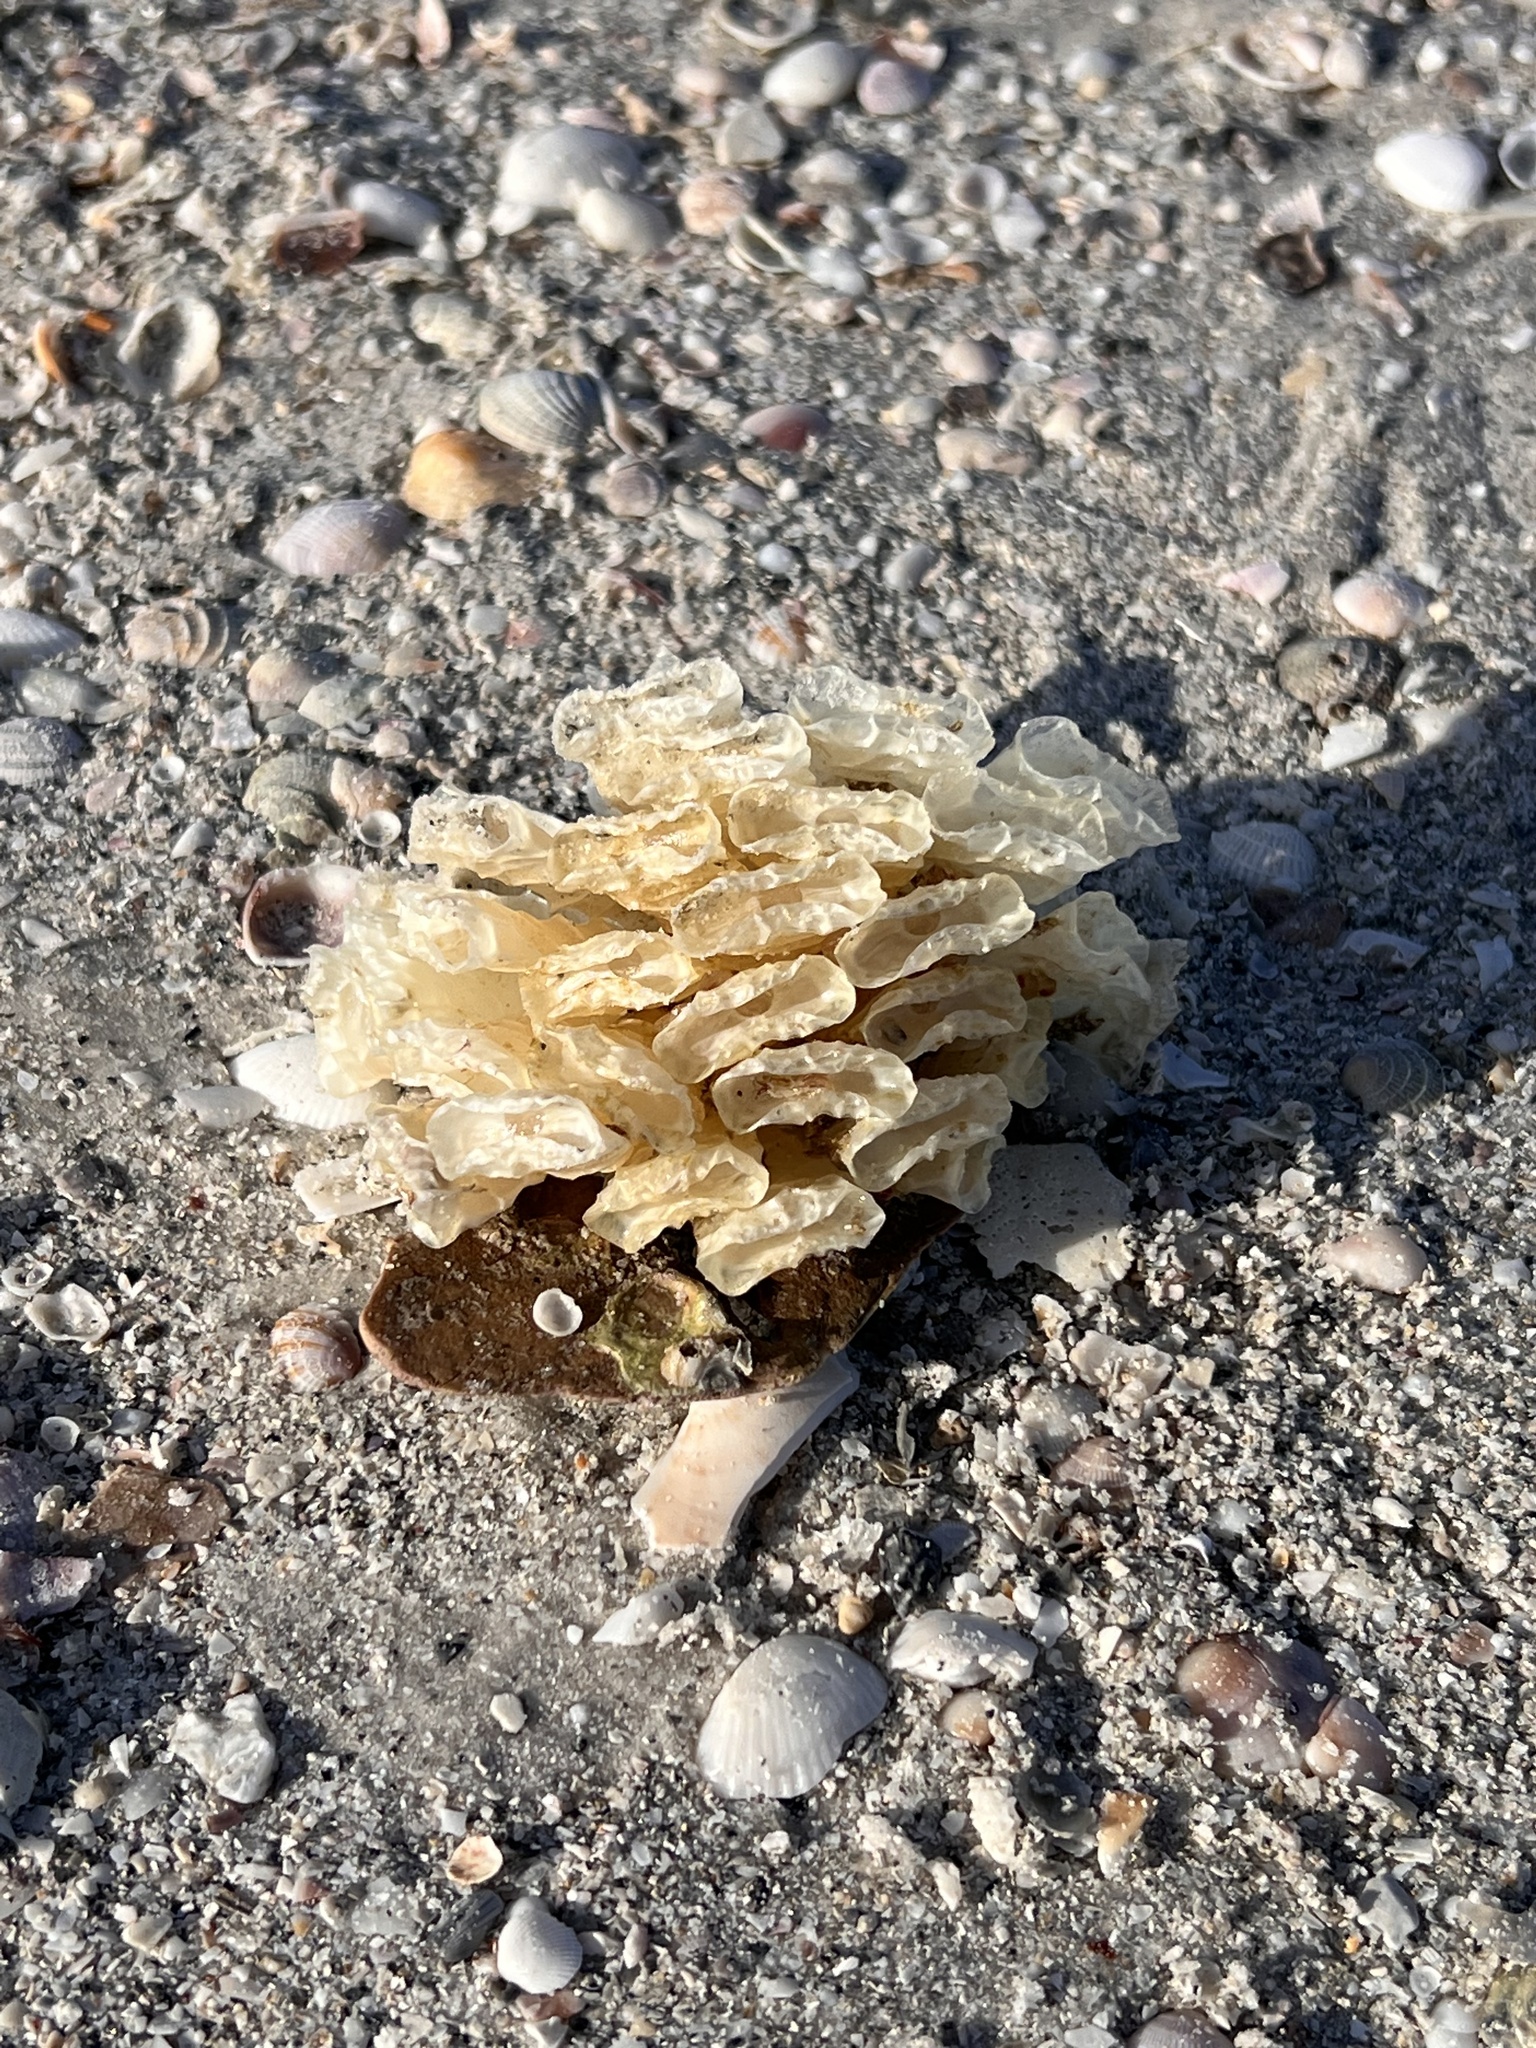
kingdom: Animalia
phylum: Mollusca
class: Gastropoda
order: Neogastropoda
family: Fasciolariidae
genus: Triplofusus
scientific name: Triplofusus giganteus
